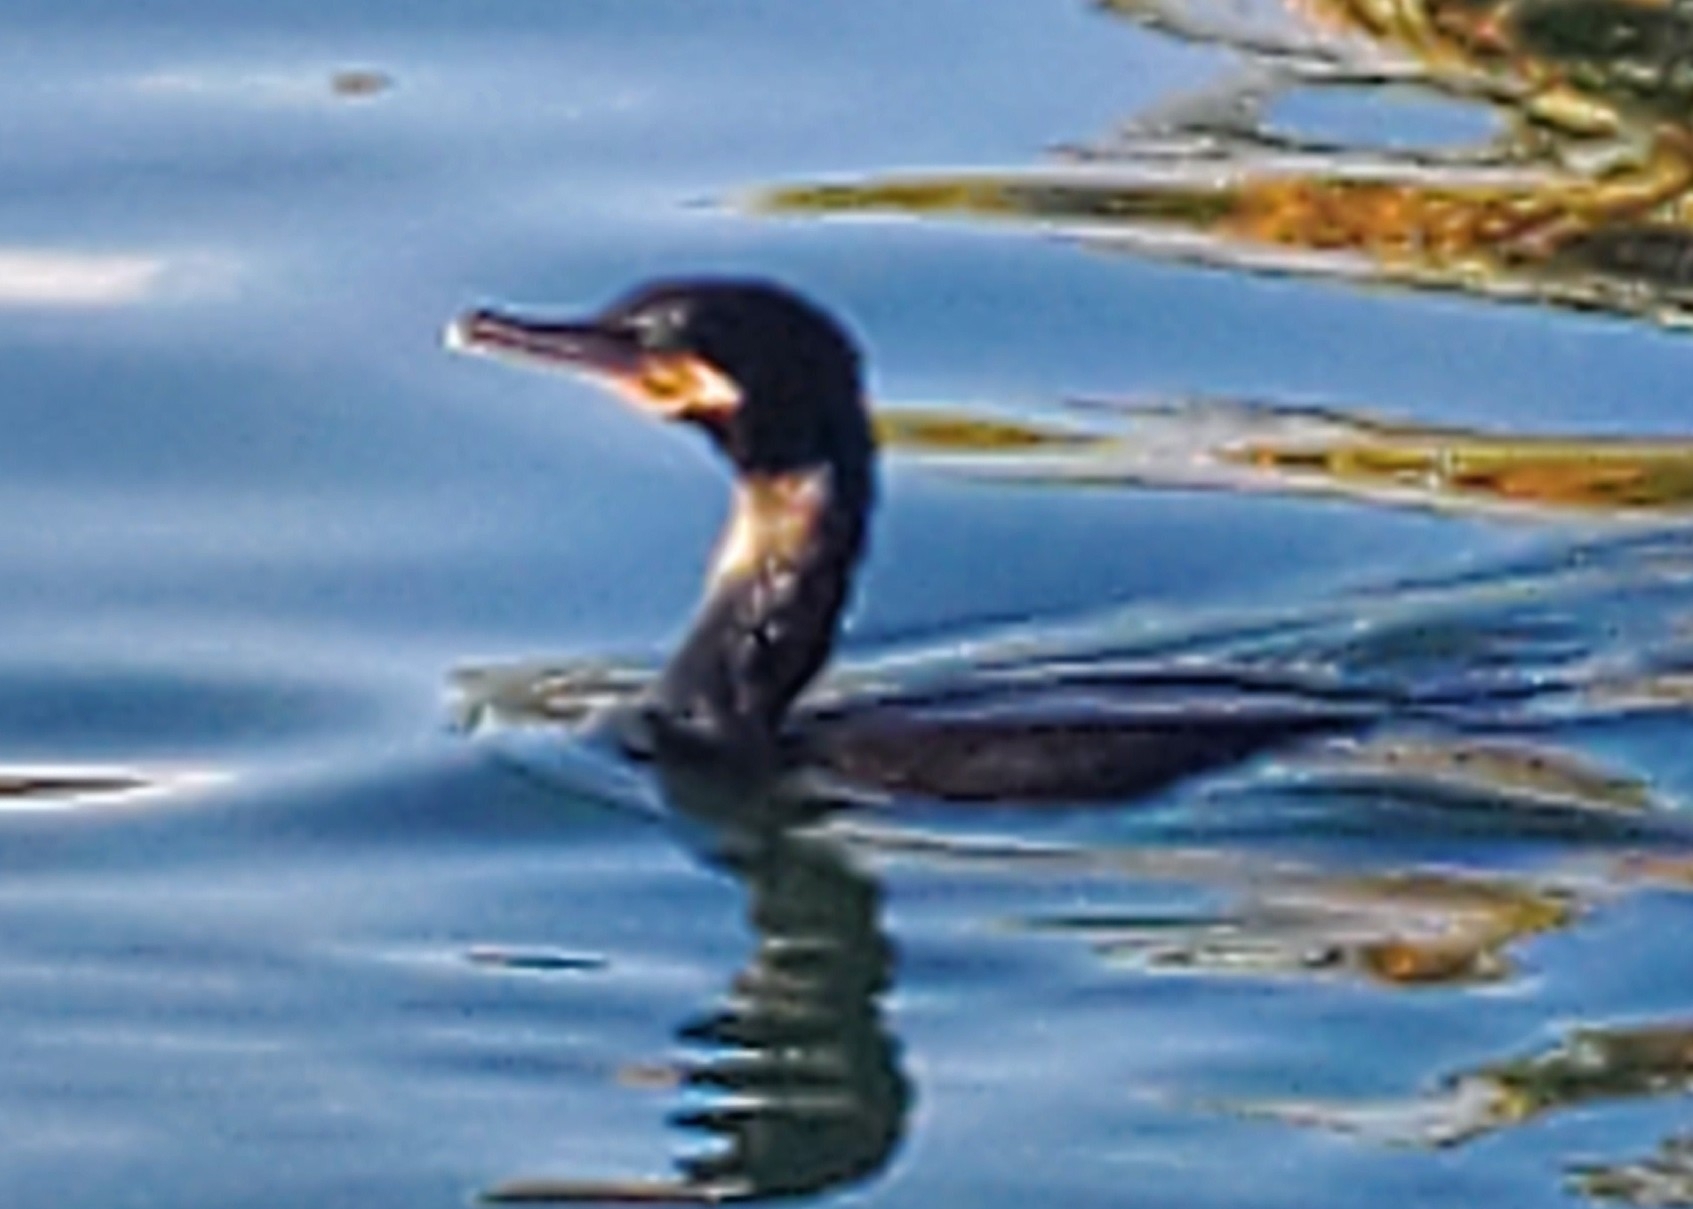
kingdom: Animalia
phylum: Chordata
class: Aves
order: Suliformes
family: Phalacrocoracidae
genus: Phalacrocorax
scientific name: Phalacrocorax brasilianus
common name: Neotropic cormorant
